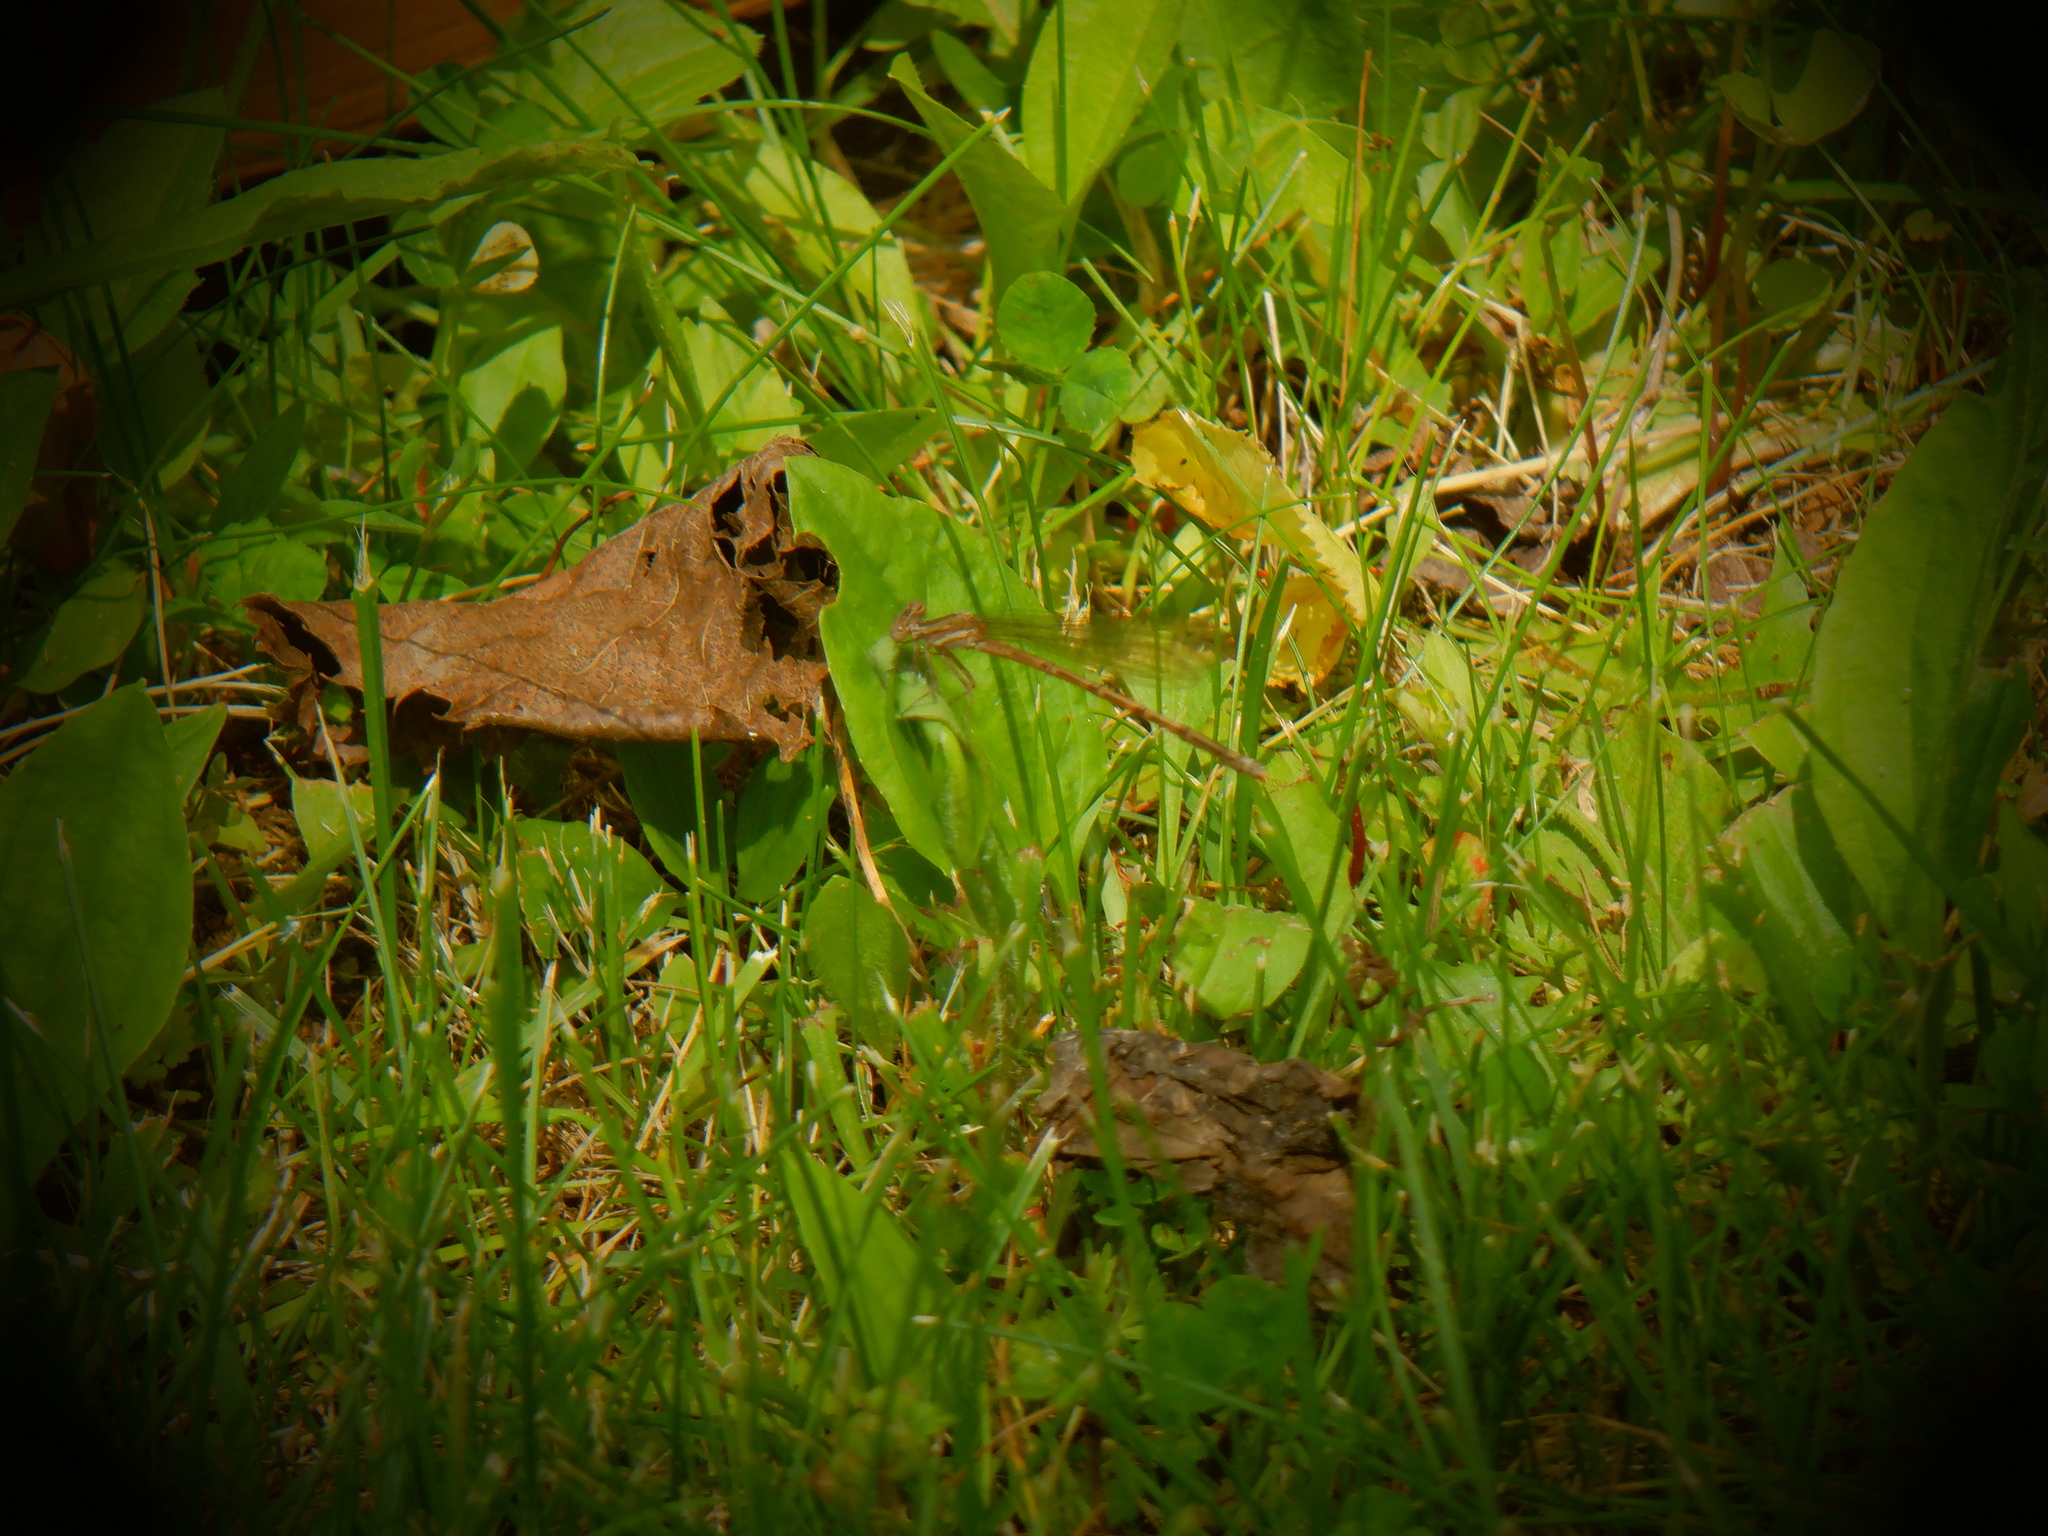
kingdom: Animalia
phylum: Arthropoda
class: Insecta
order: Odonata
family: Coenagrionidae
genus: Argia
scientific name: Argia fumipennis
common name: Variable dancer
